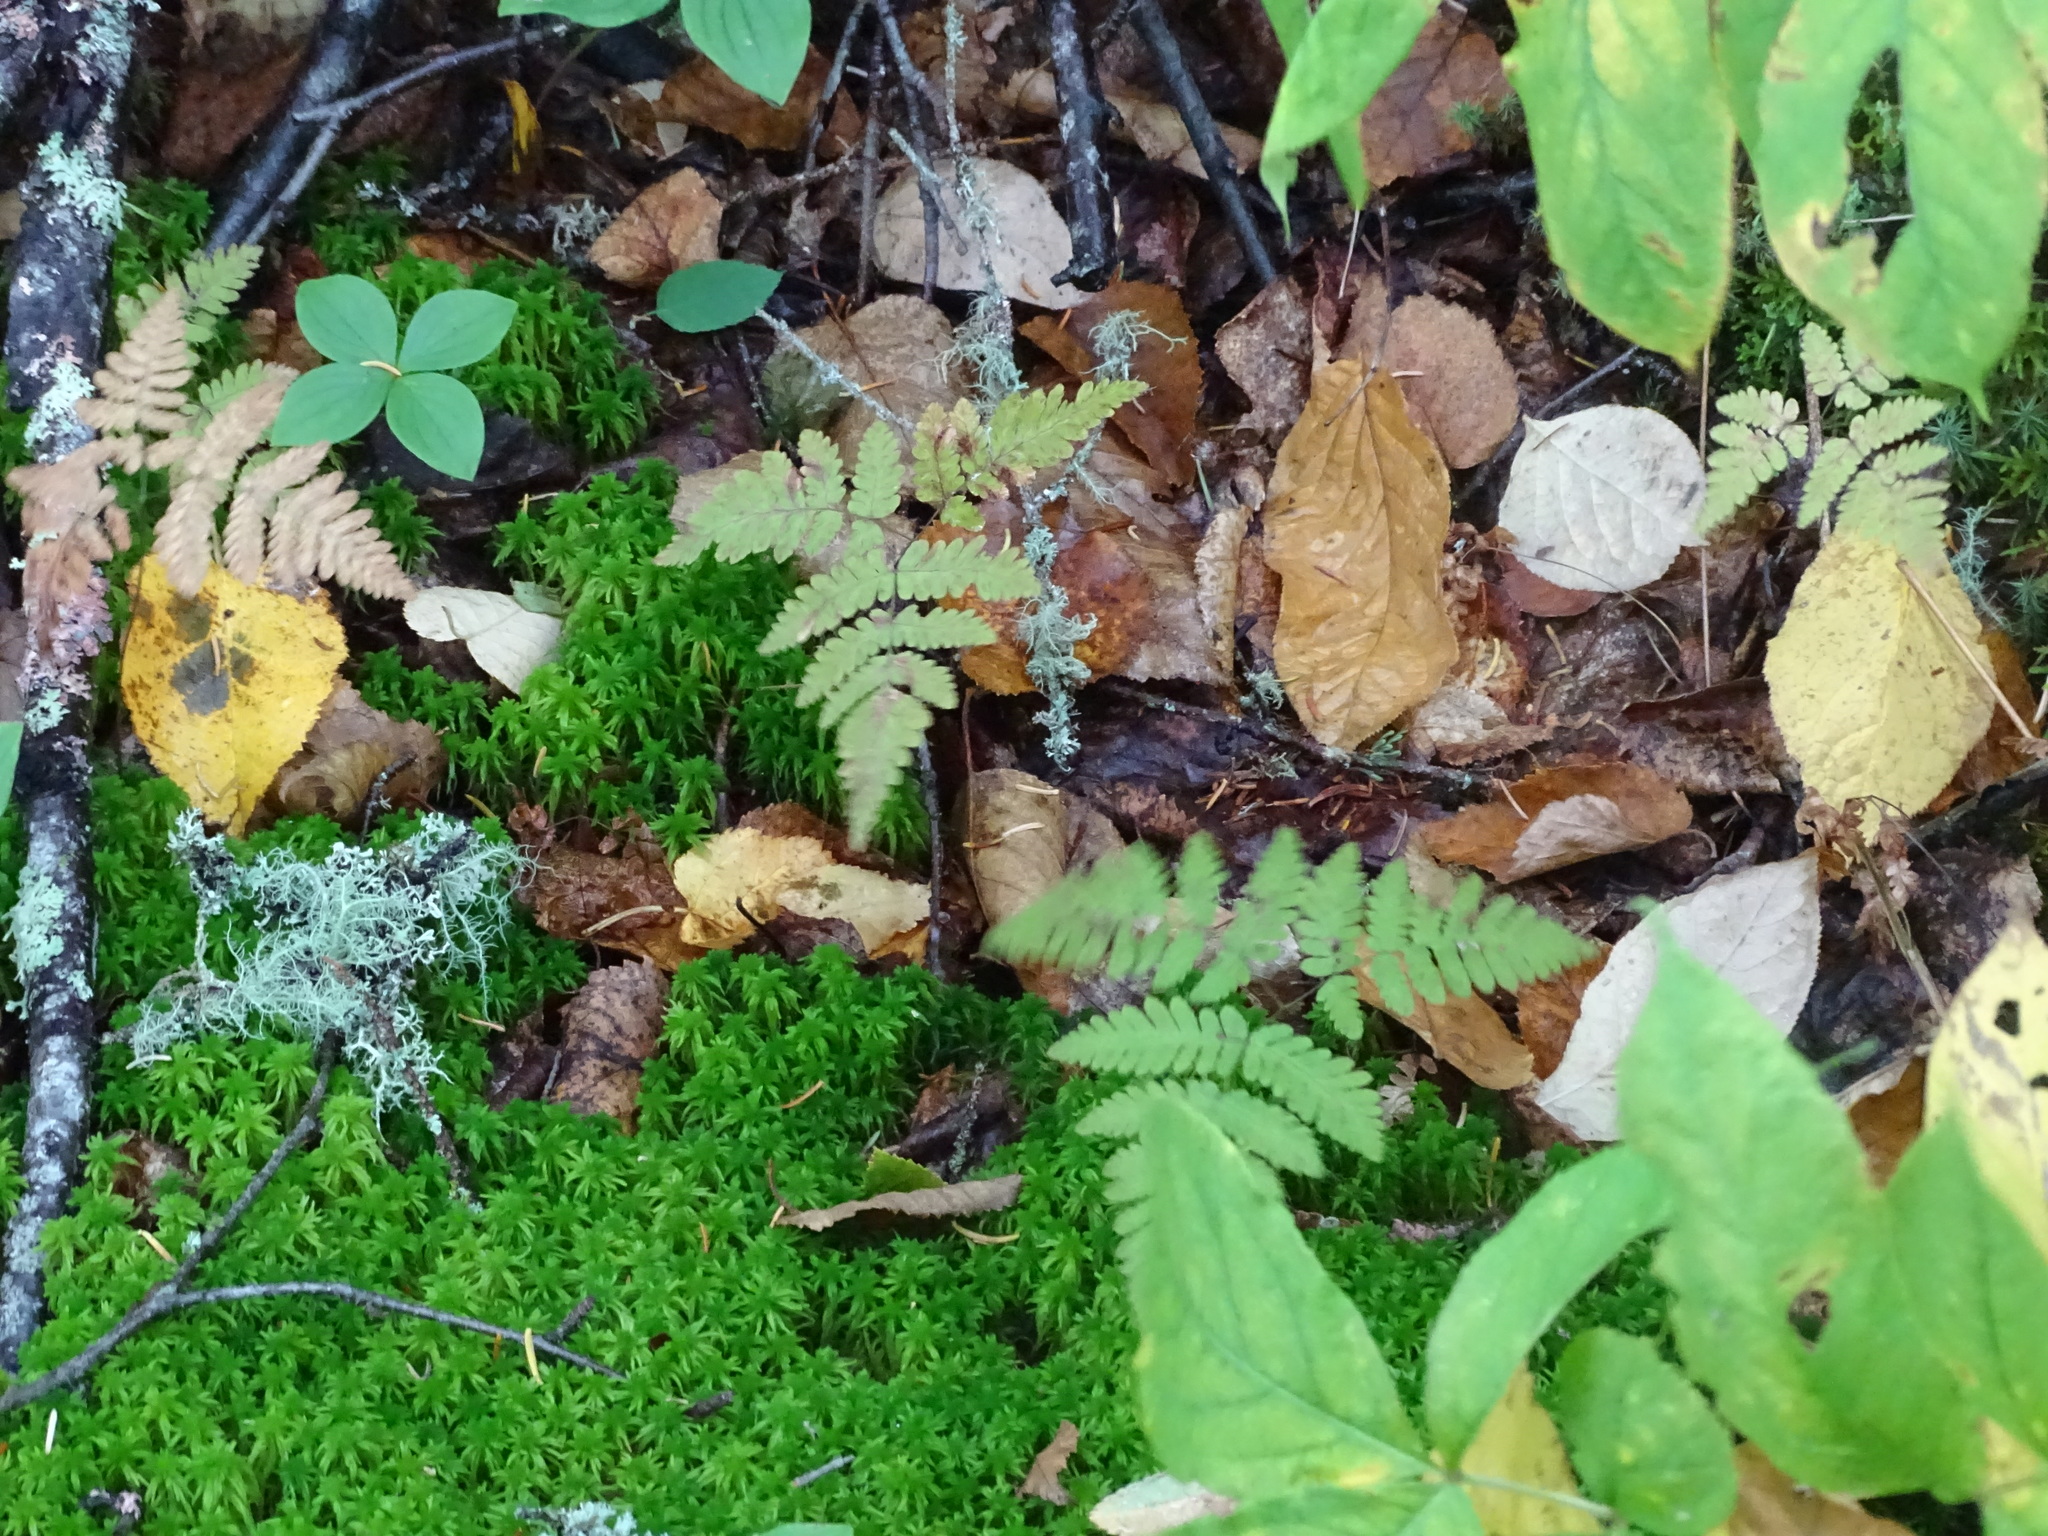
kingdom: Plantae
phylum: Tracheophyta
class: Polypodiopsida
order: Polypodiales
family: Cystopteridaceae
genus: Gymnocarpium
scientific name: Gymnocarpium dryopteris
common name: Oak fern
